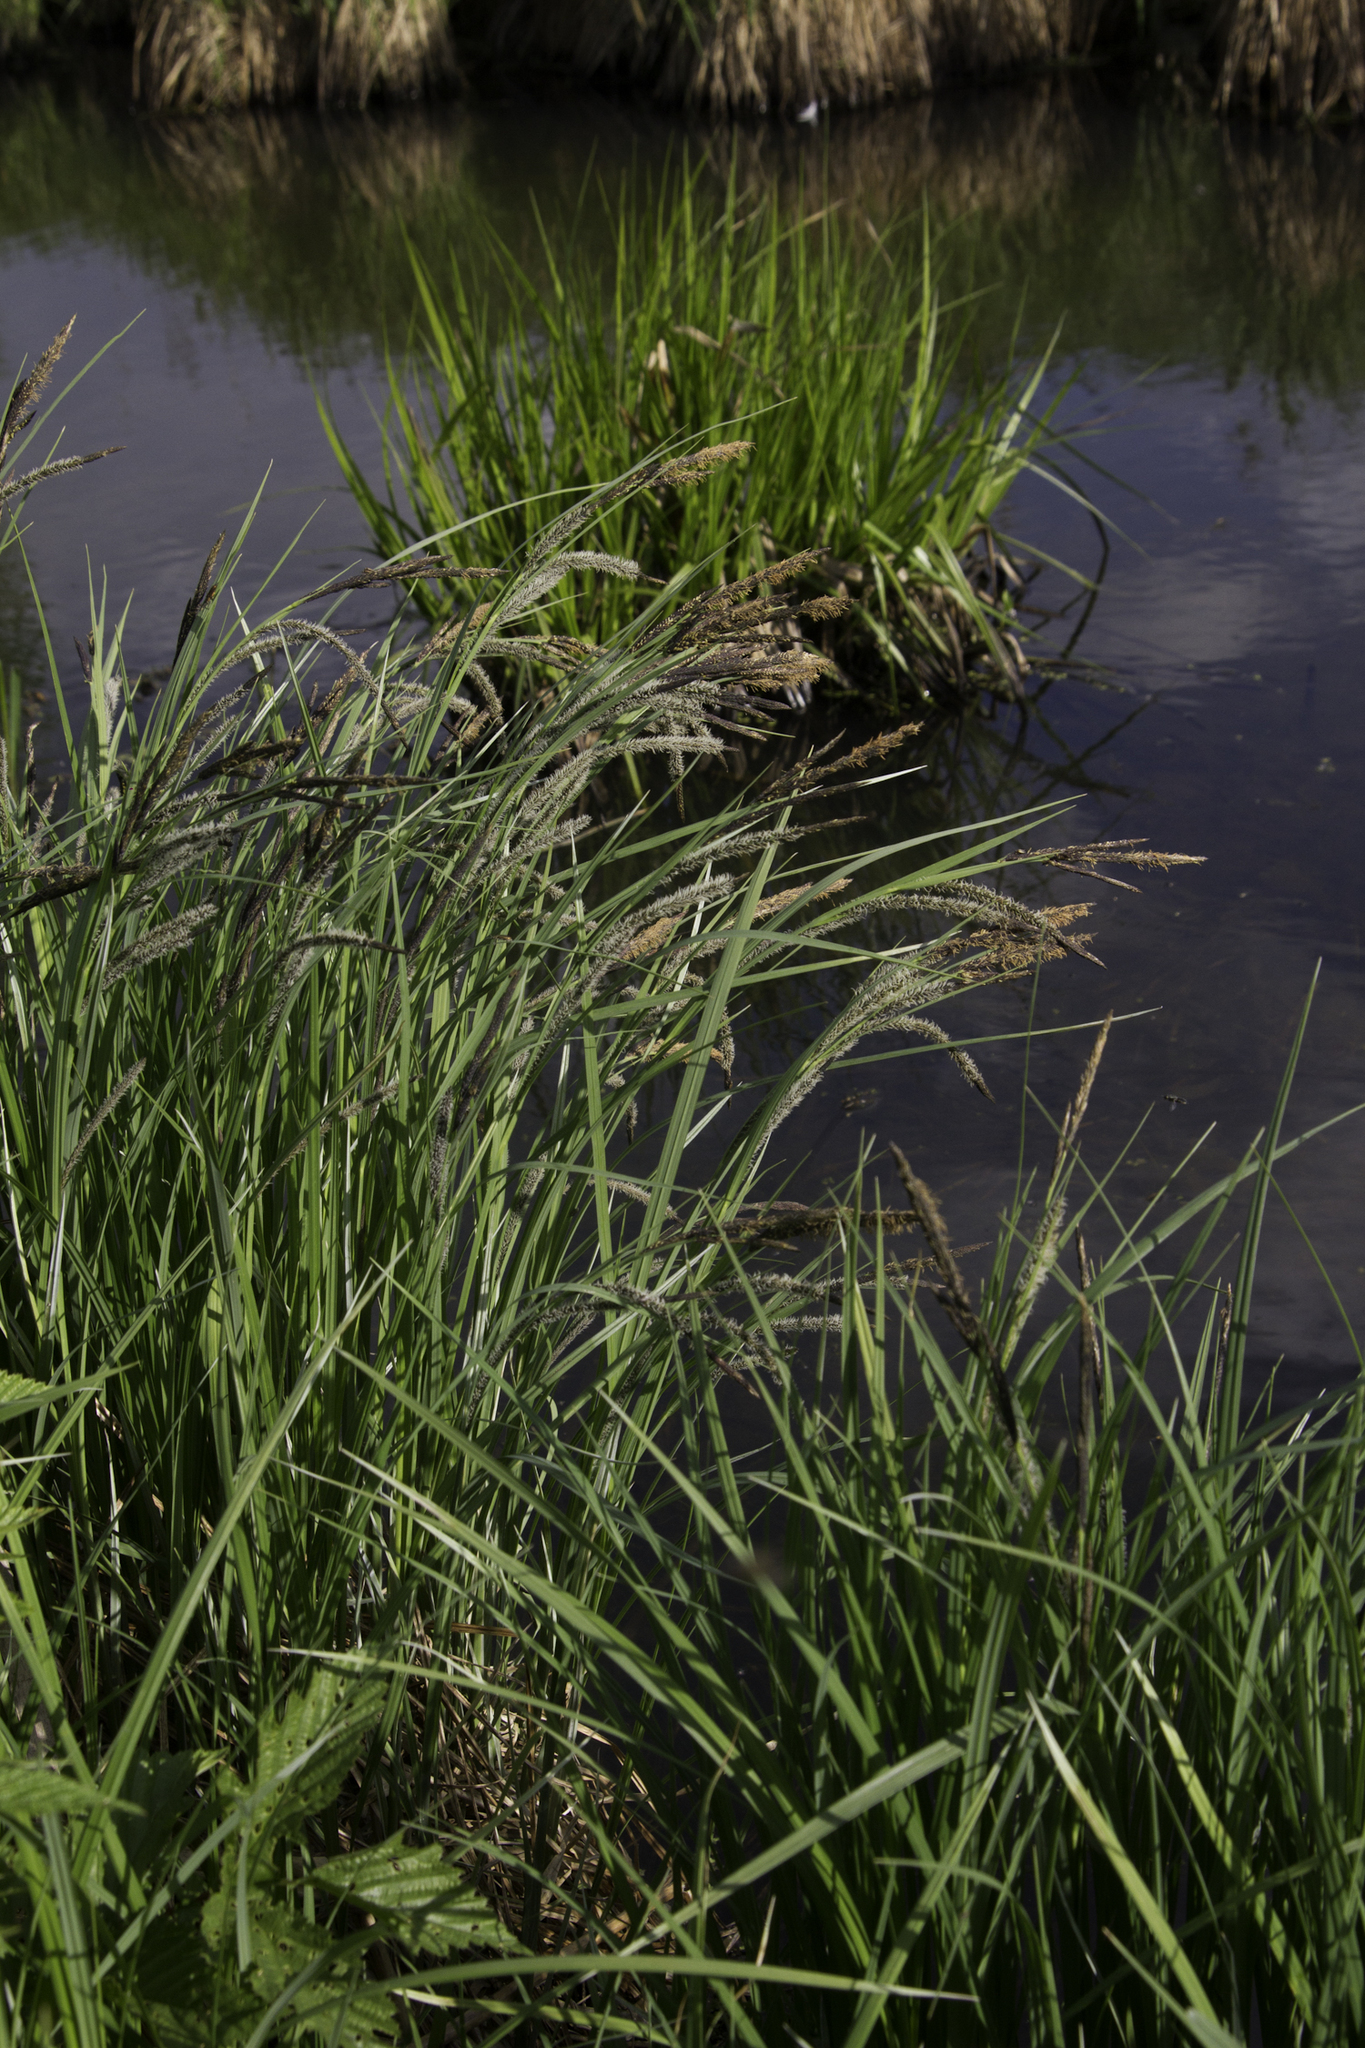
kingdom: Plantae
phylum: Tracheophyta
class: Liliopsida
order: Poales
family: Cyperaceae
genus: Carex
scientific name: Carex acuta
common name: Slender tufted-sedge
